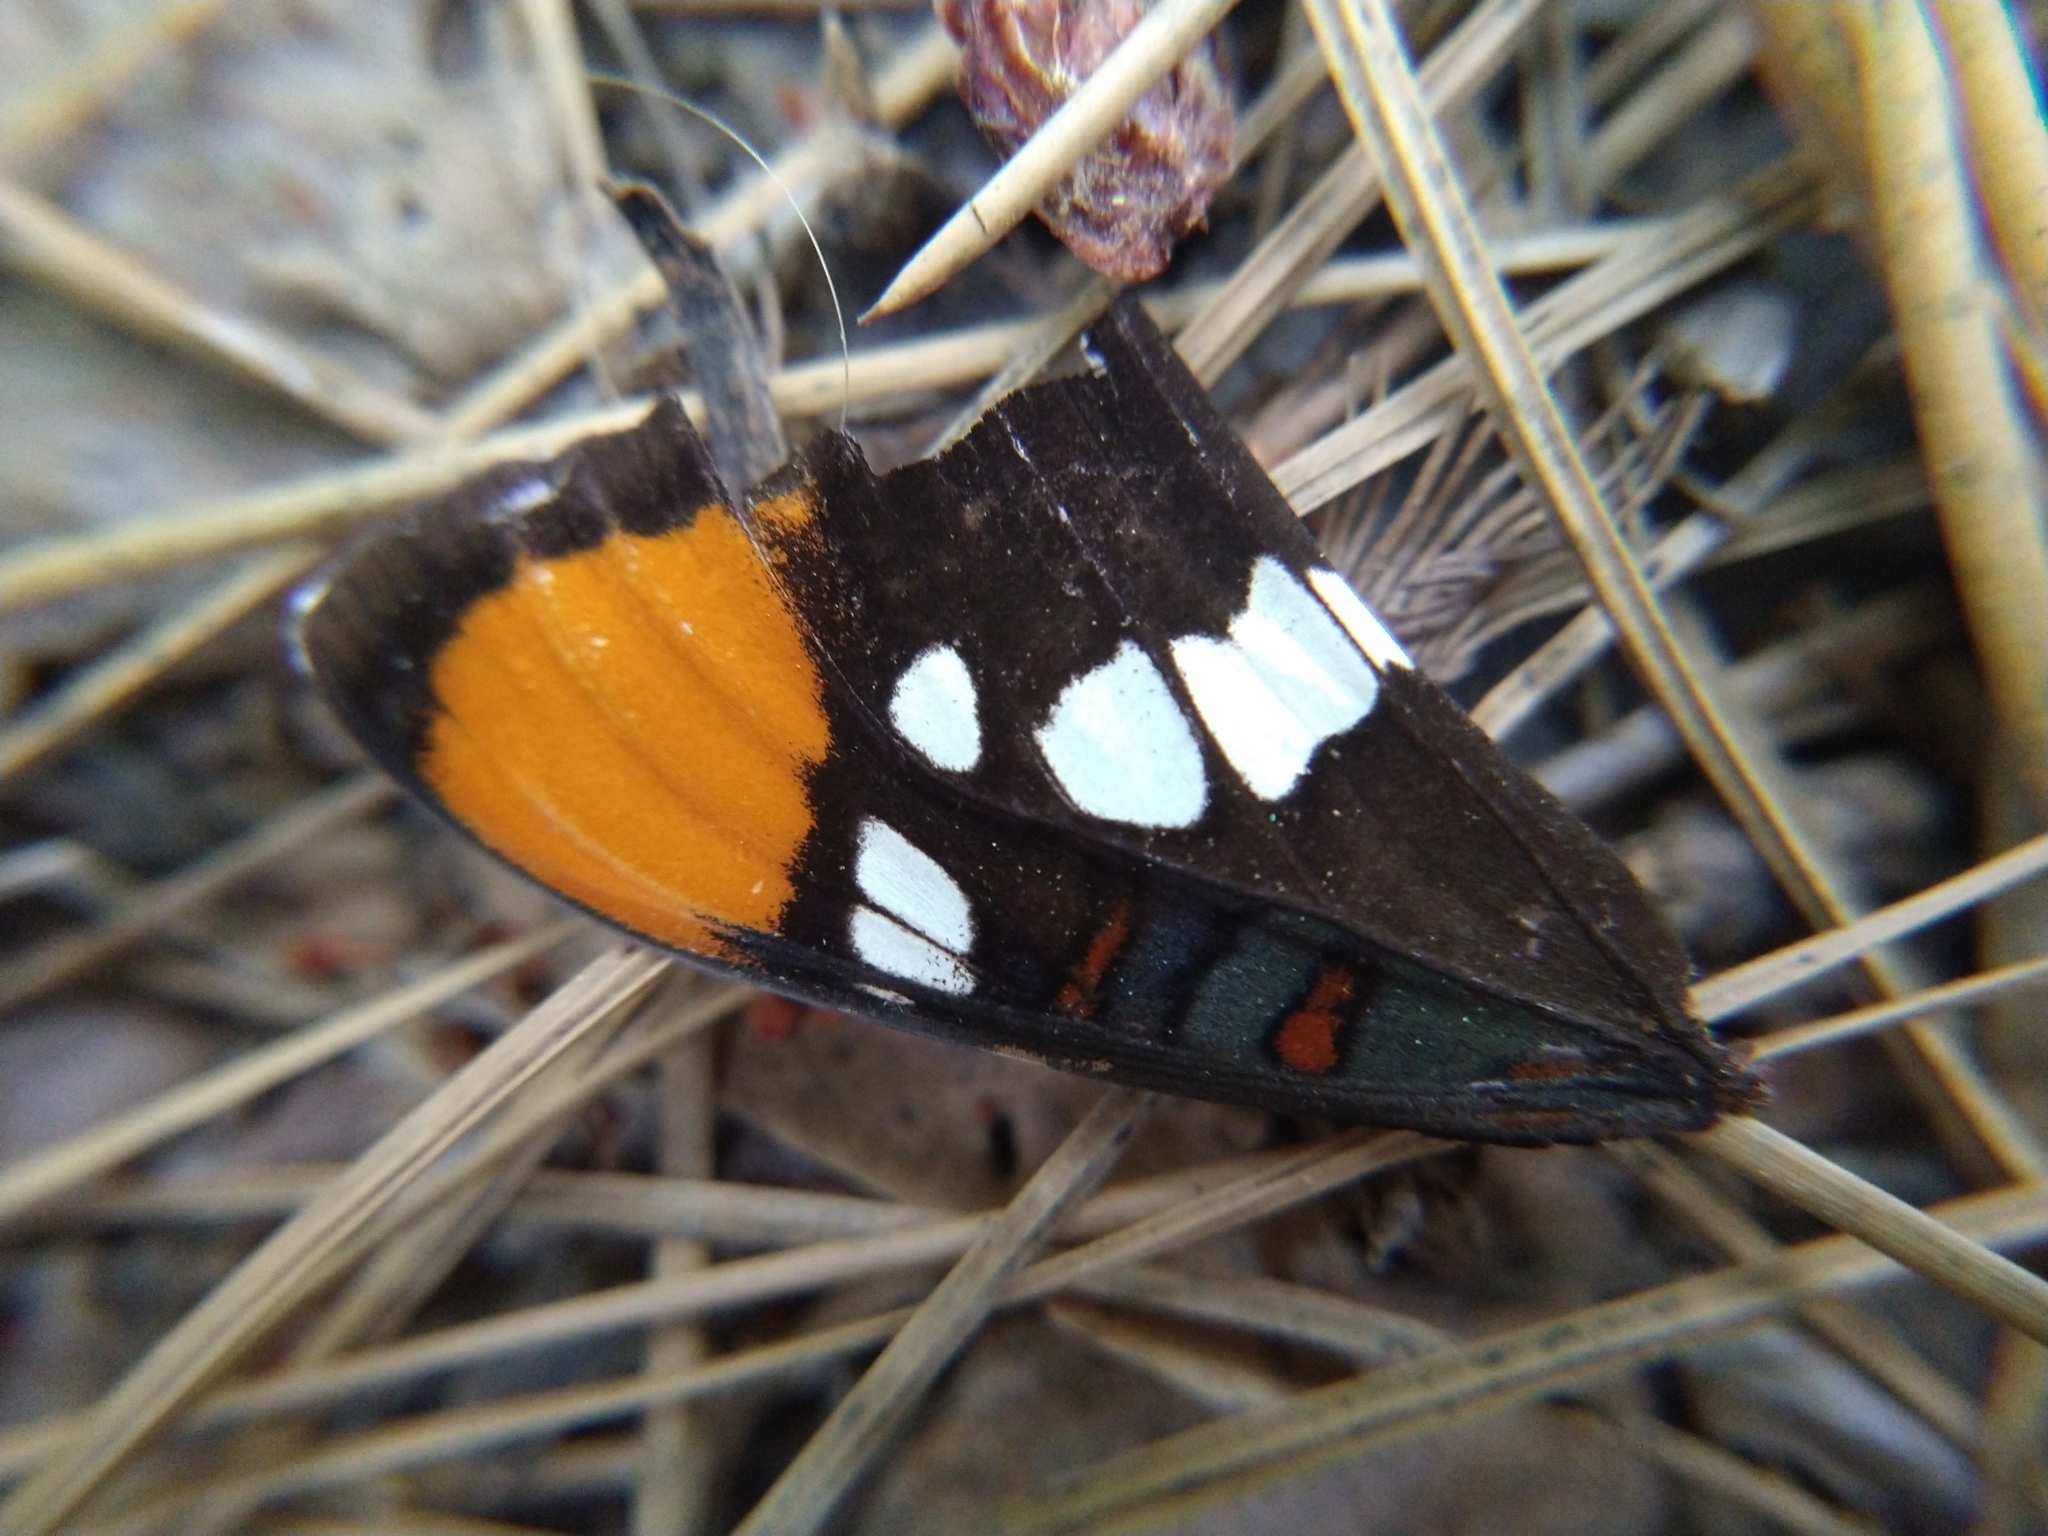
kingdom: Animalia
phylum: Arthropoda
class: Insecta
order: Lepidoptera
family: Nymphalidae
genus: Limenitis
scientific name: Limenitis bredowii
